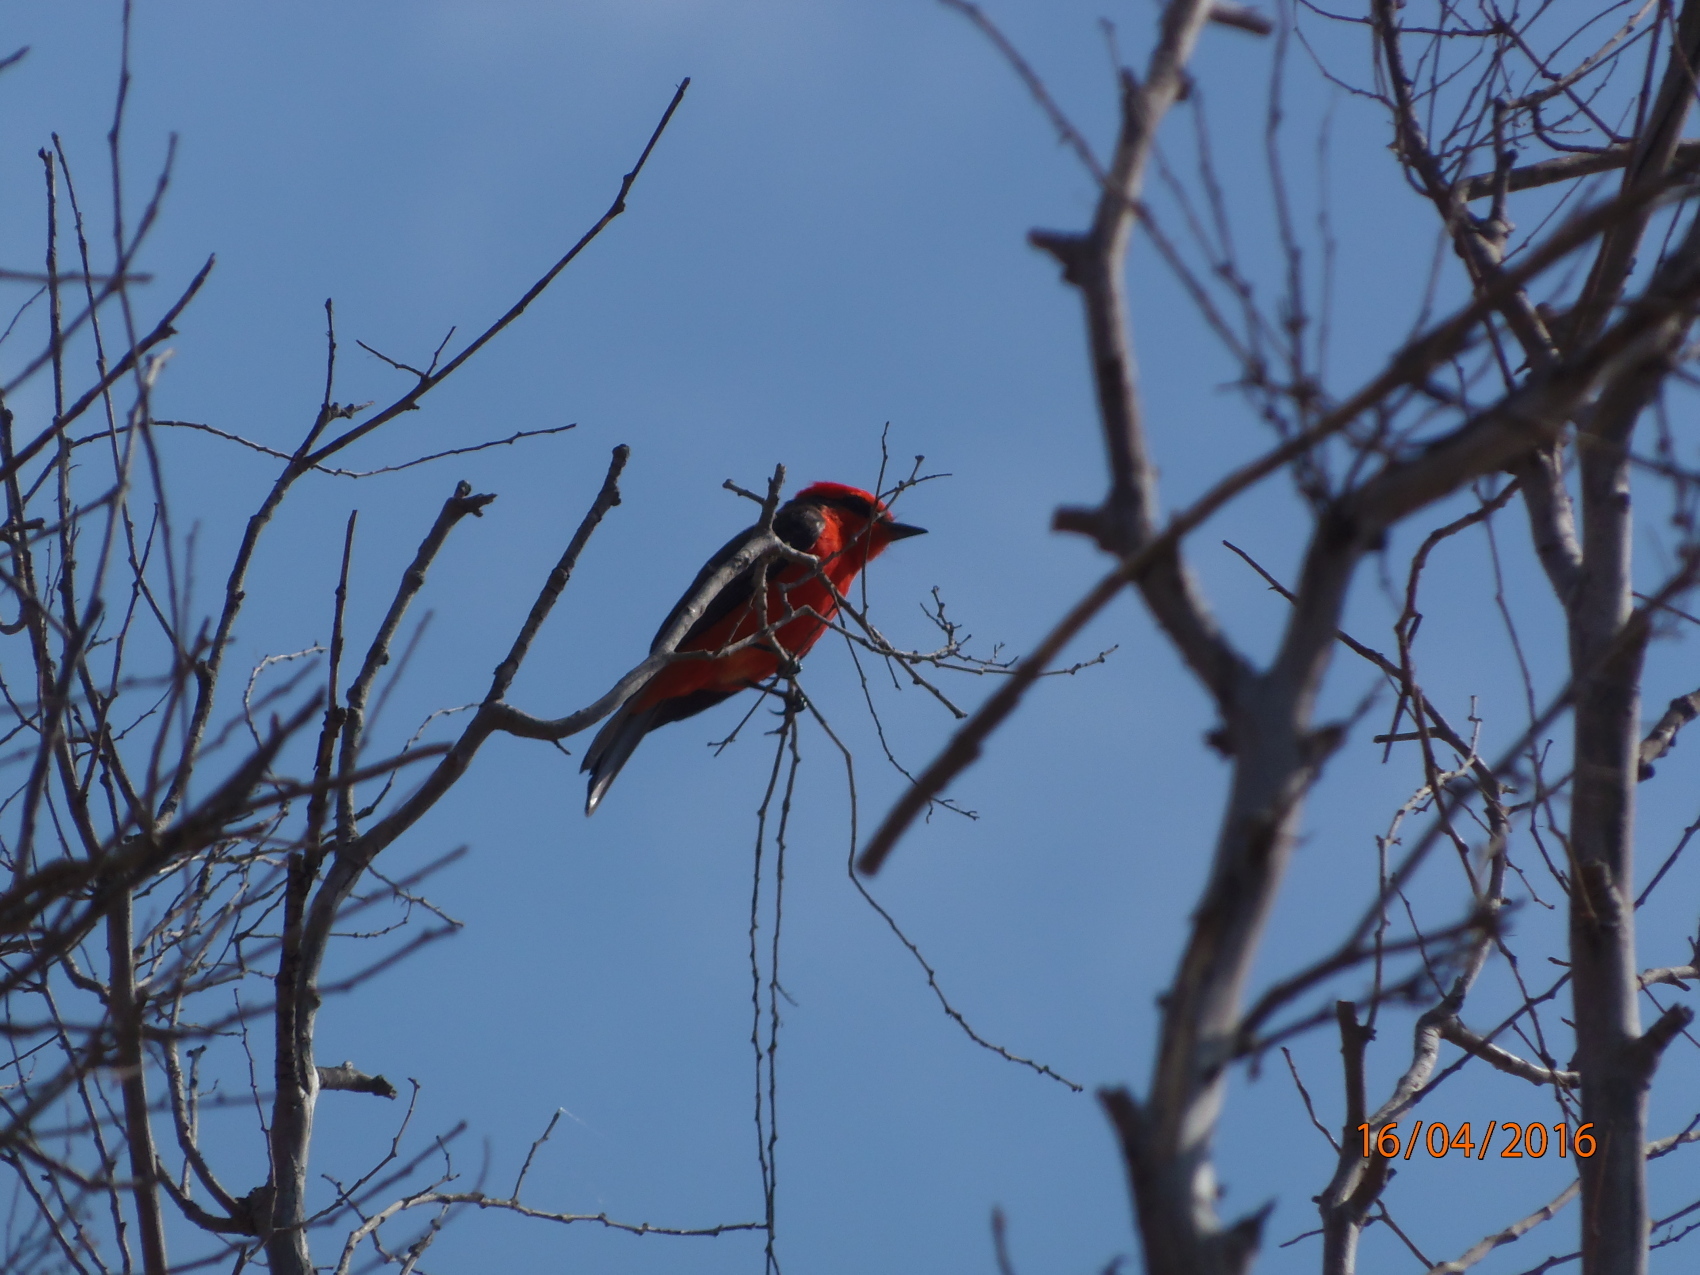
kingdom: Animalia
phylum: Chordata
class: Aves
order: Passeriformes
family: Tyrannidae
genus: Pyrocephalus
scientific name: Pyrocephalus rubinus
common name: Vermilion flycatcher
